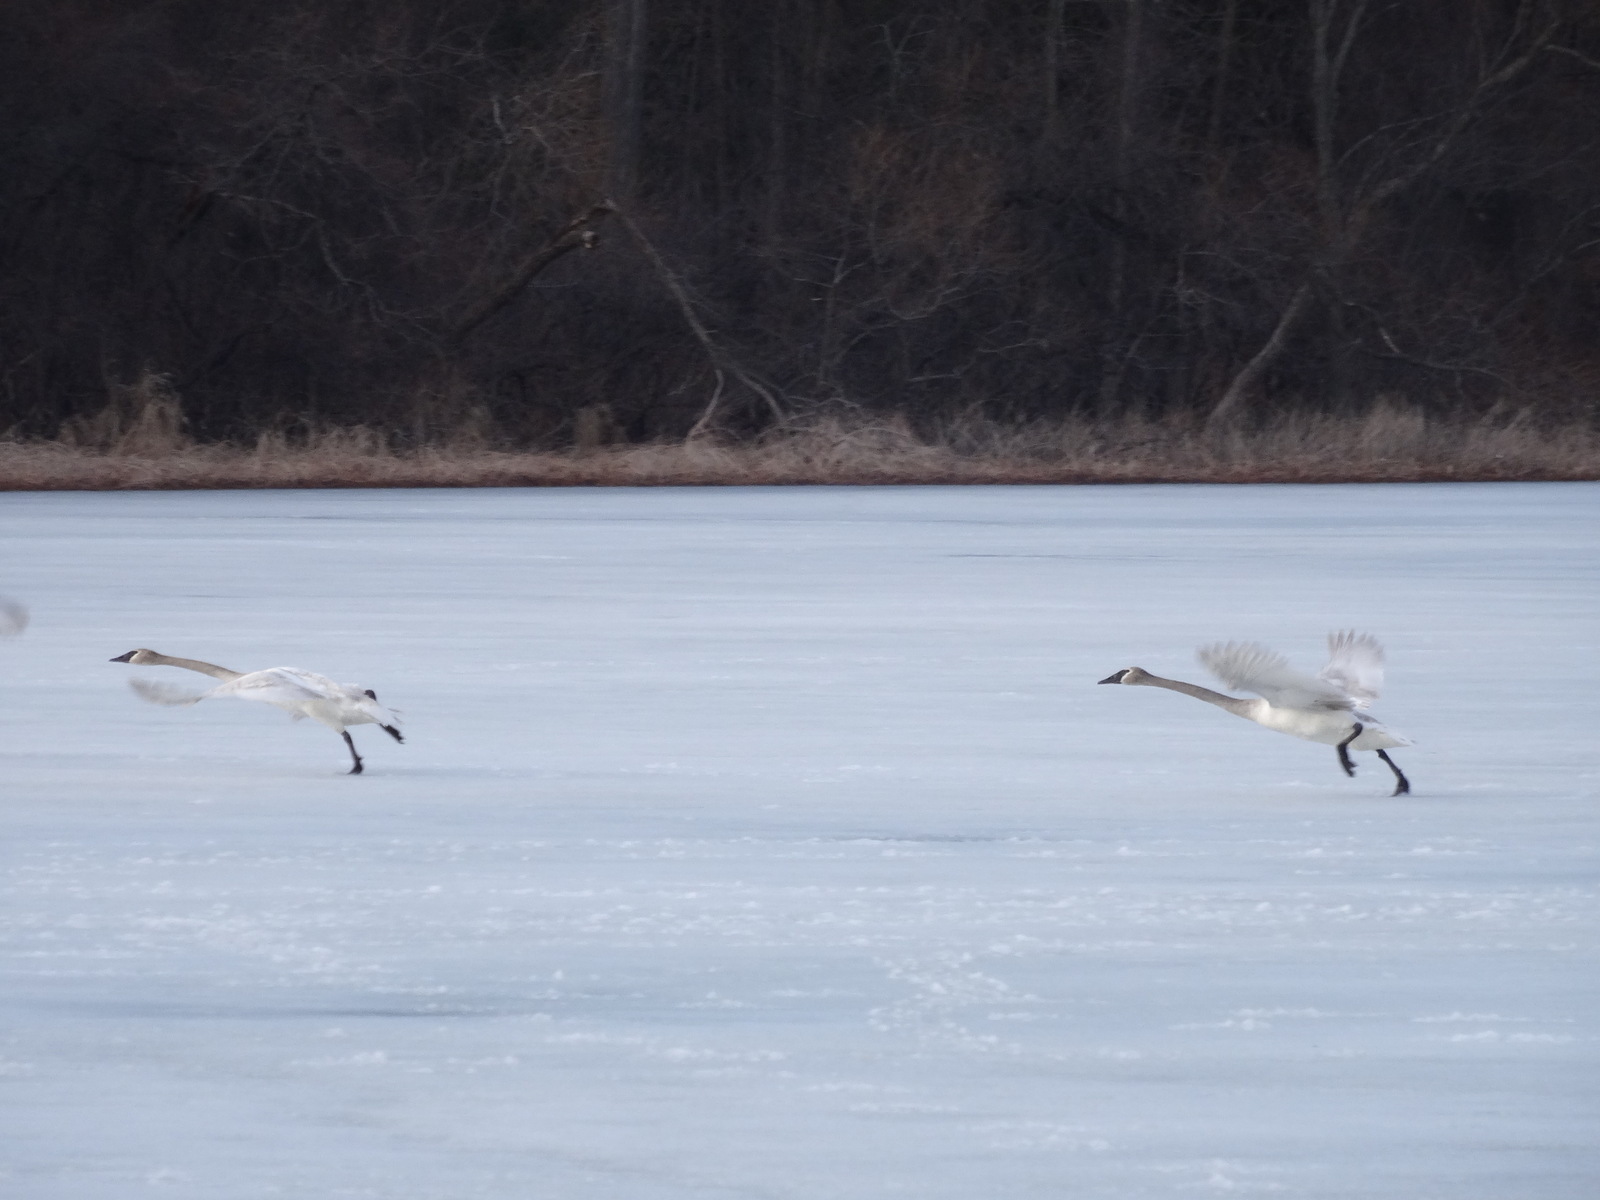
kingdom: Animalia
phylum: Chordata
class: Aves
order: Anseriformes
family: Anatidae
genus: Cygnus
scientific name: Cygnus buccinator
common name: Trumpeter swan
